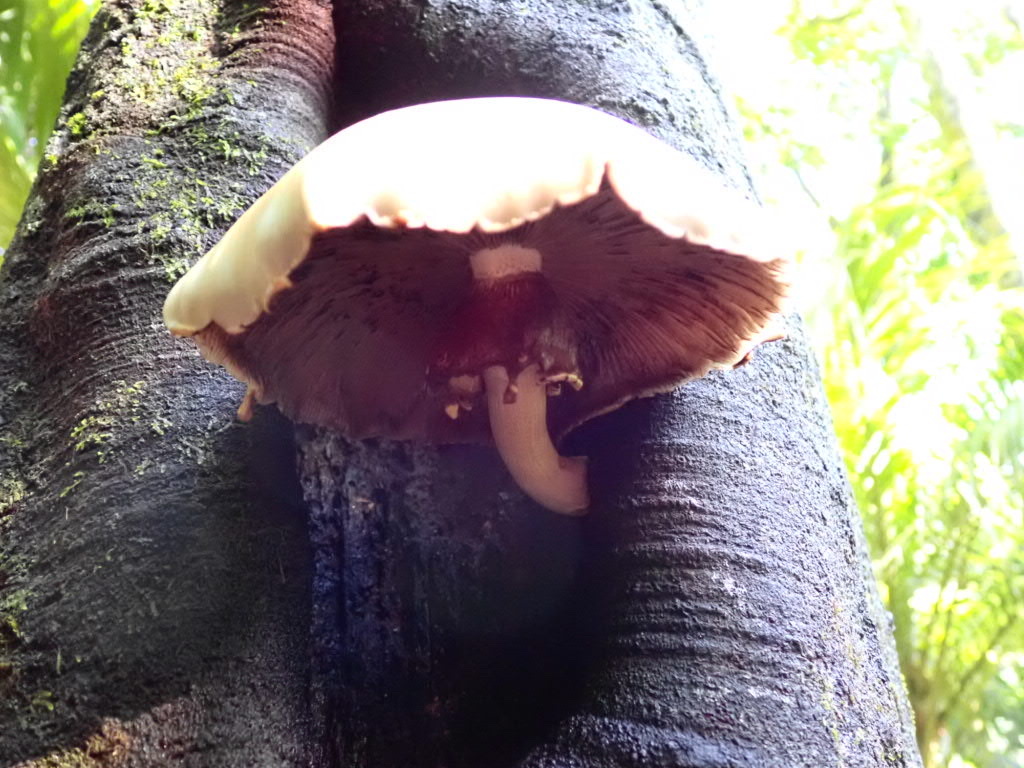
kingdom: Fungi
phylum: Basidiomycota
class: Agaricomycetes
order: Agaricales
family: Tubariaceae
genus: Cyclocybe
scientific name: Cyclocybe parasitica
